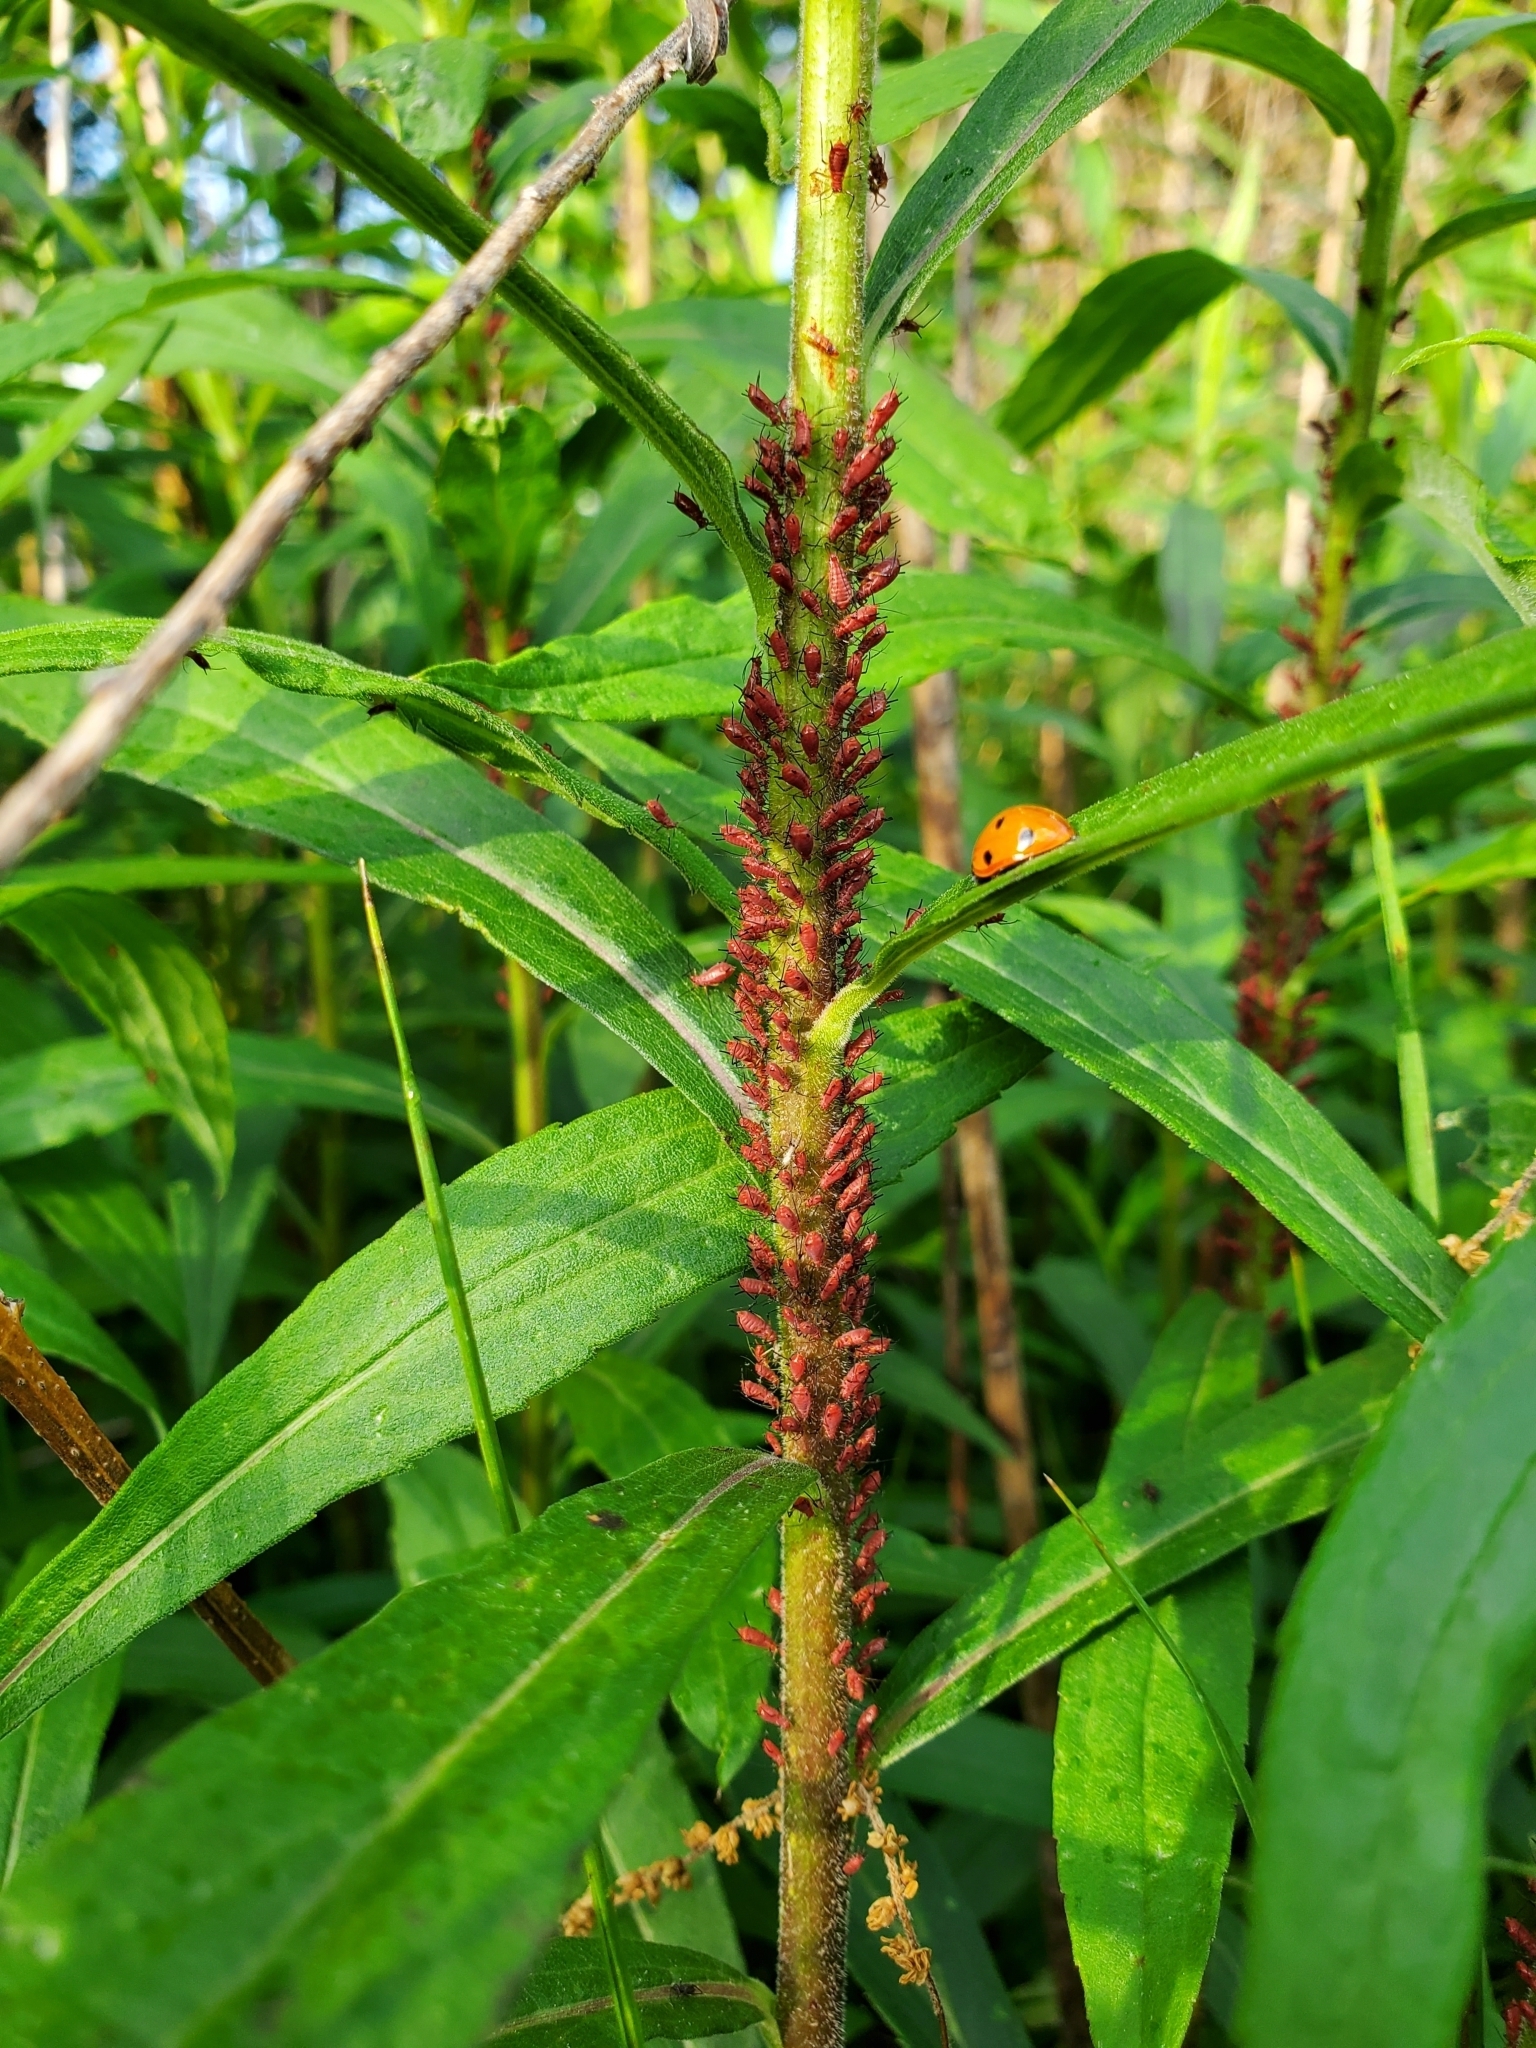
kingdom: Animalia
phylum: Arthropoda
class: Insecta
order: Coleoptera
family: Coccinellidae
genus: Coccinella
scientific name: Coccinella septempunctata
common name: Sevenspotted lady beetle
